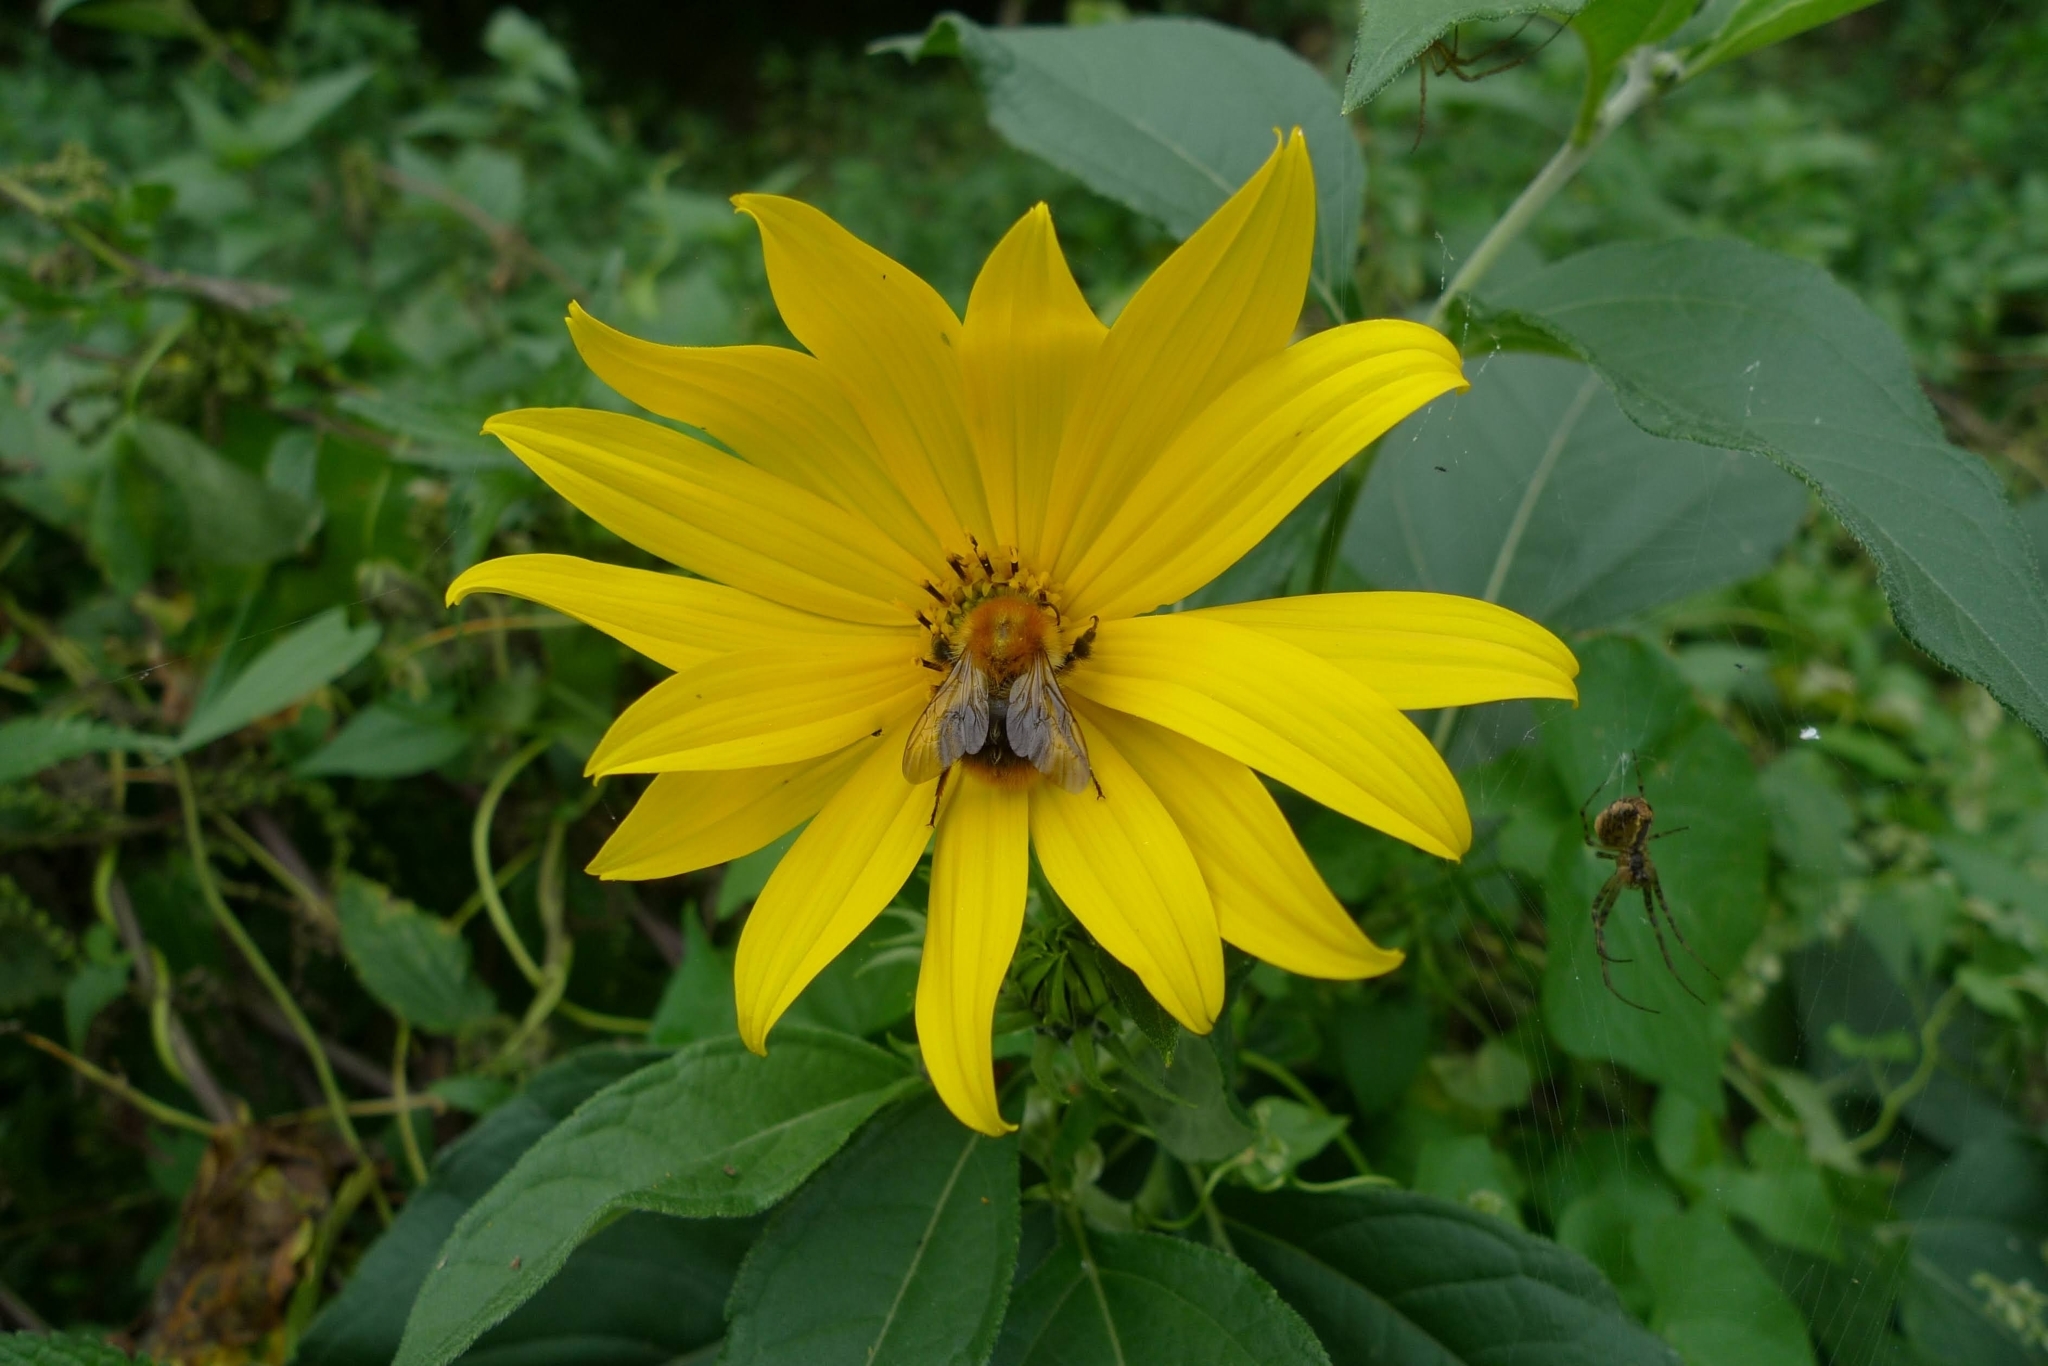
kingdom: Plantae
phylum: Tracheophyta
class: Magnoliopsida
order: Asterales
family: Asteraceae
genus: Helianthus
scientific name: Helianthus tuberosus
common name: Jerusalem artichoke
